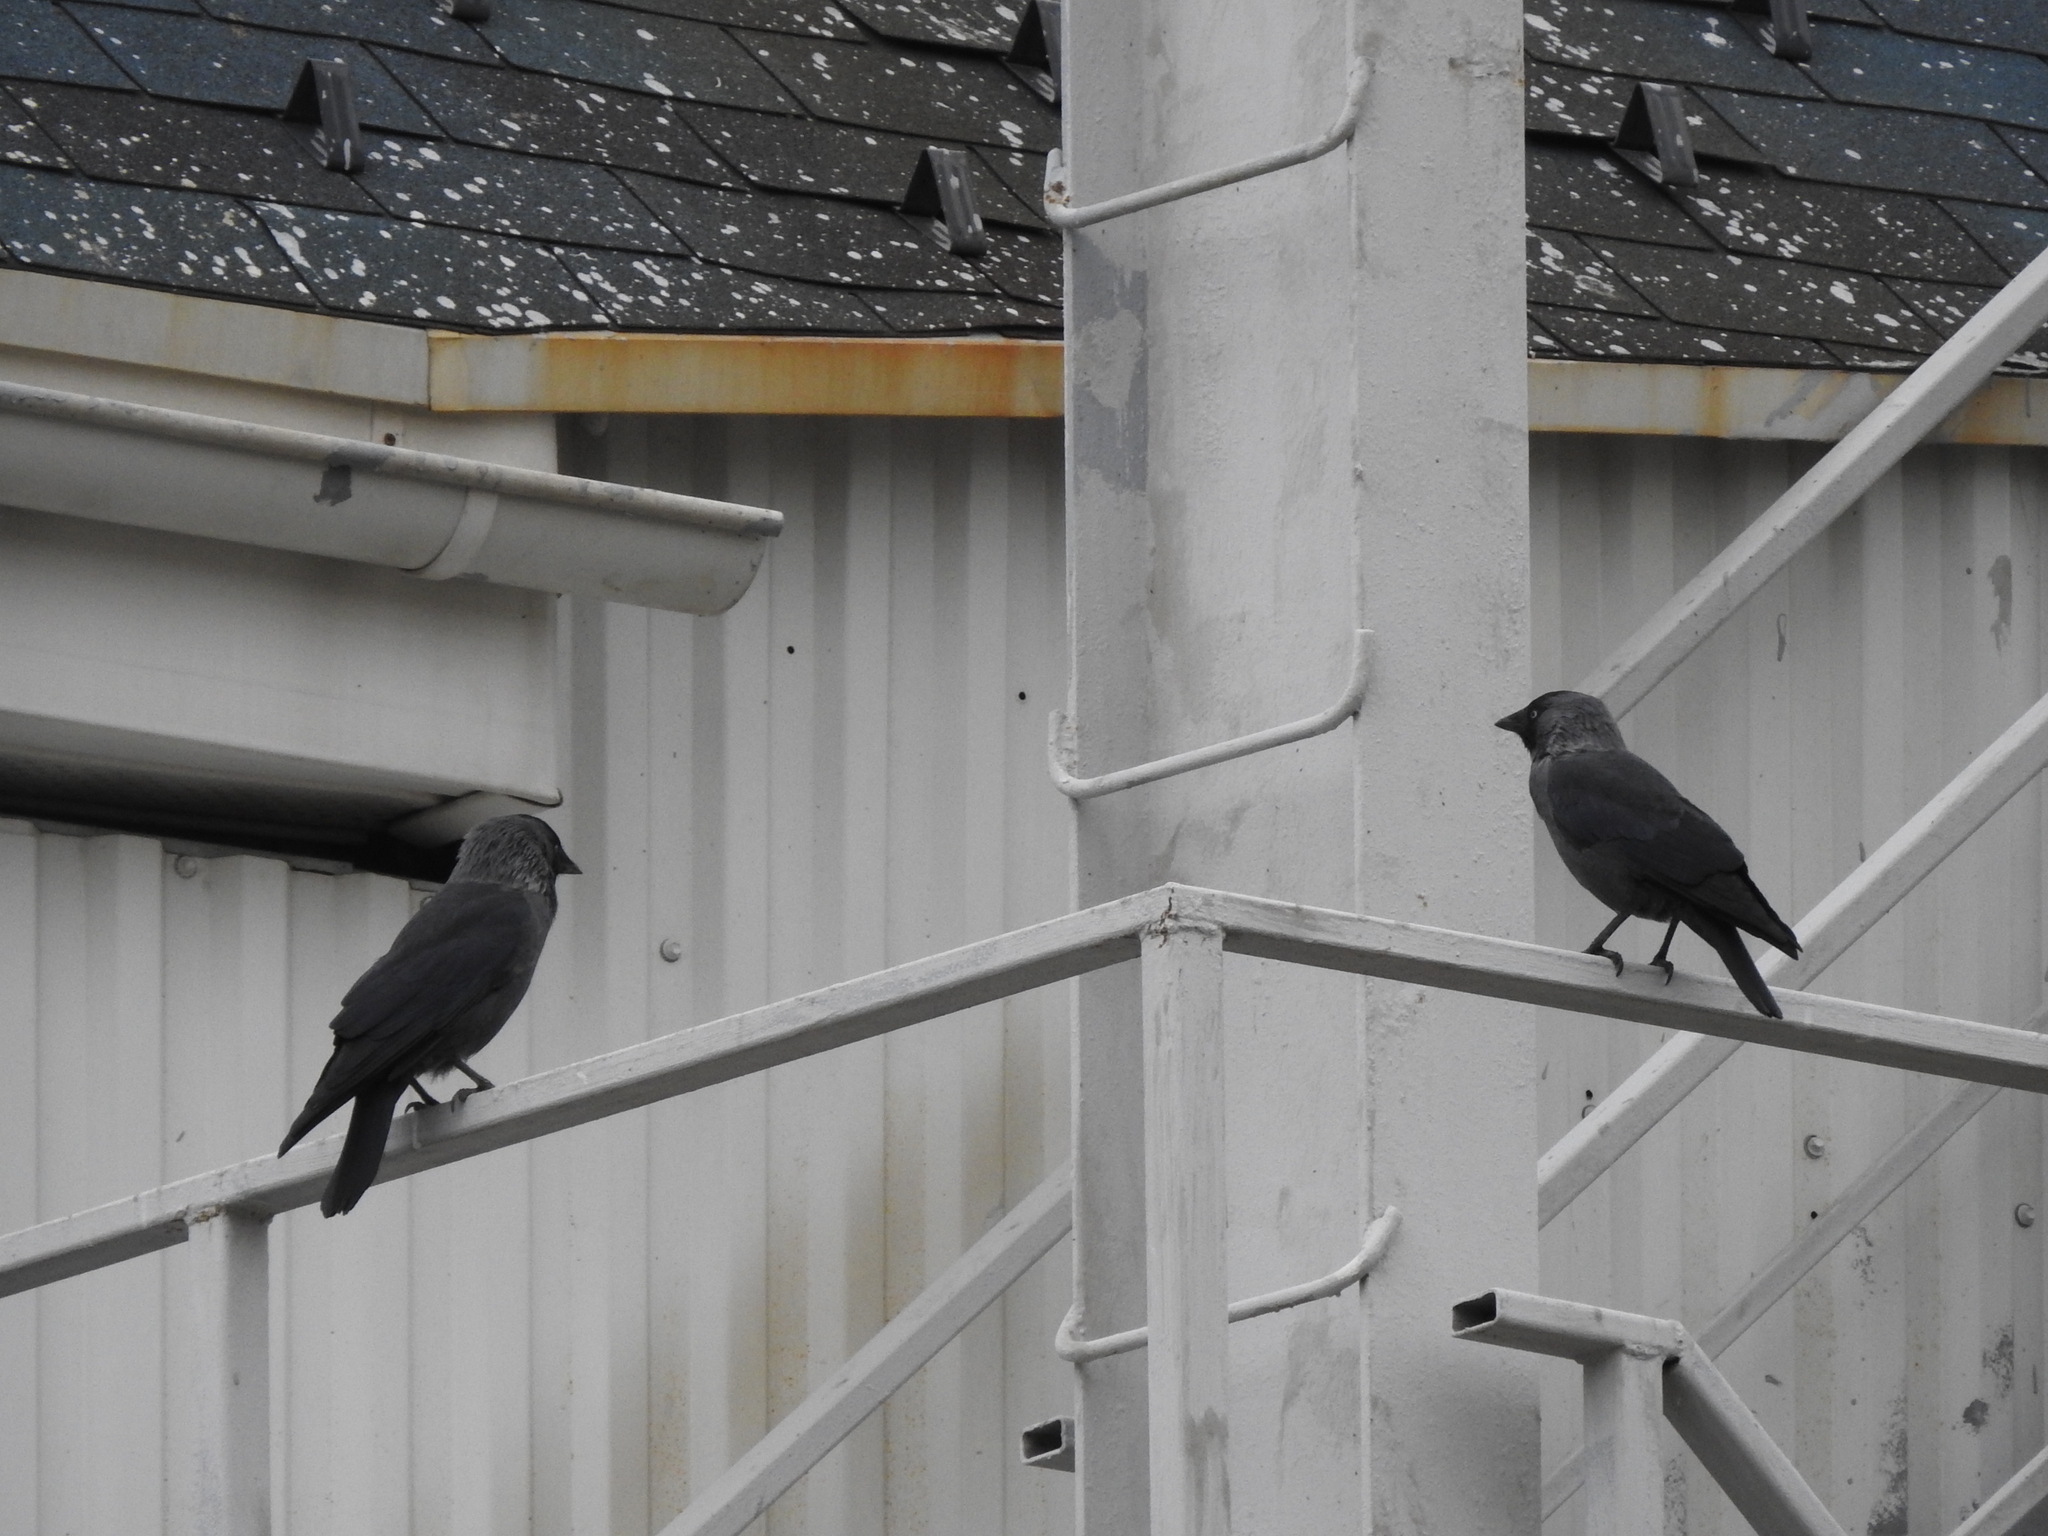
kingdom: Animalia
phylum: Chordata
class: Aves
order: Passeriformes
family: Corvidae
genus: Coloeus
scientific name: Coloeus monedula
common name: Western jackdaw
